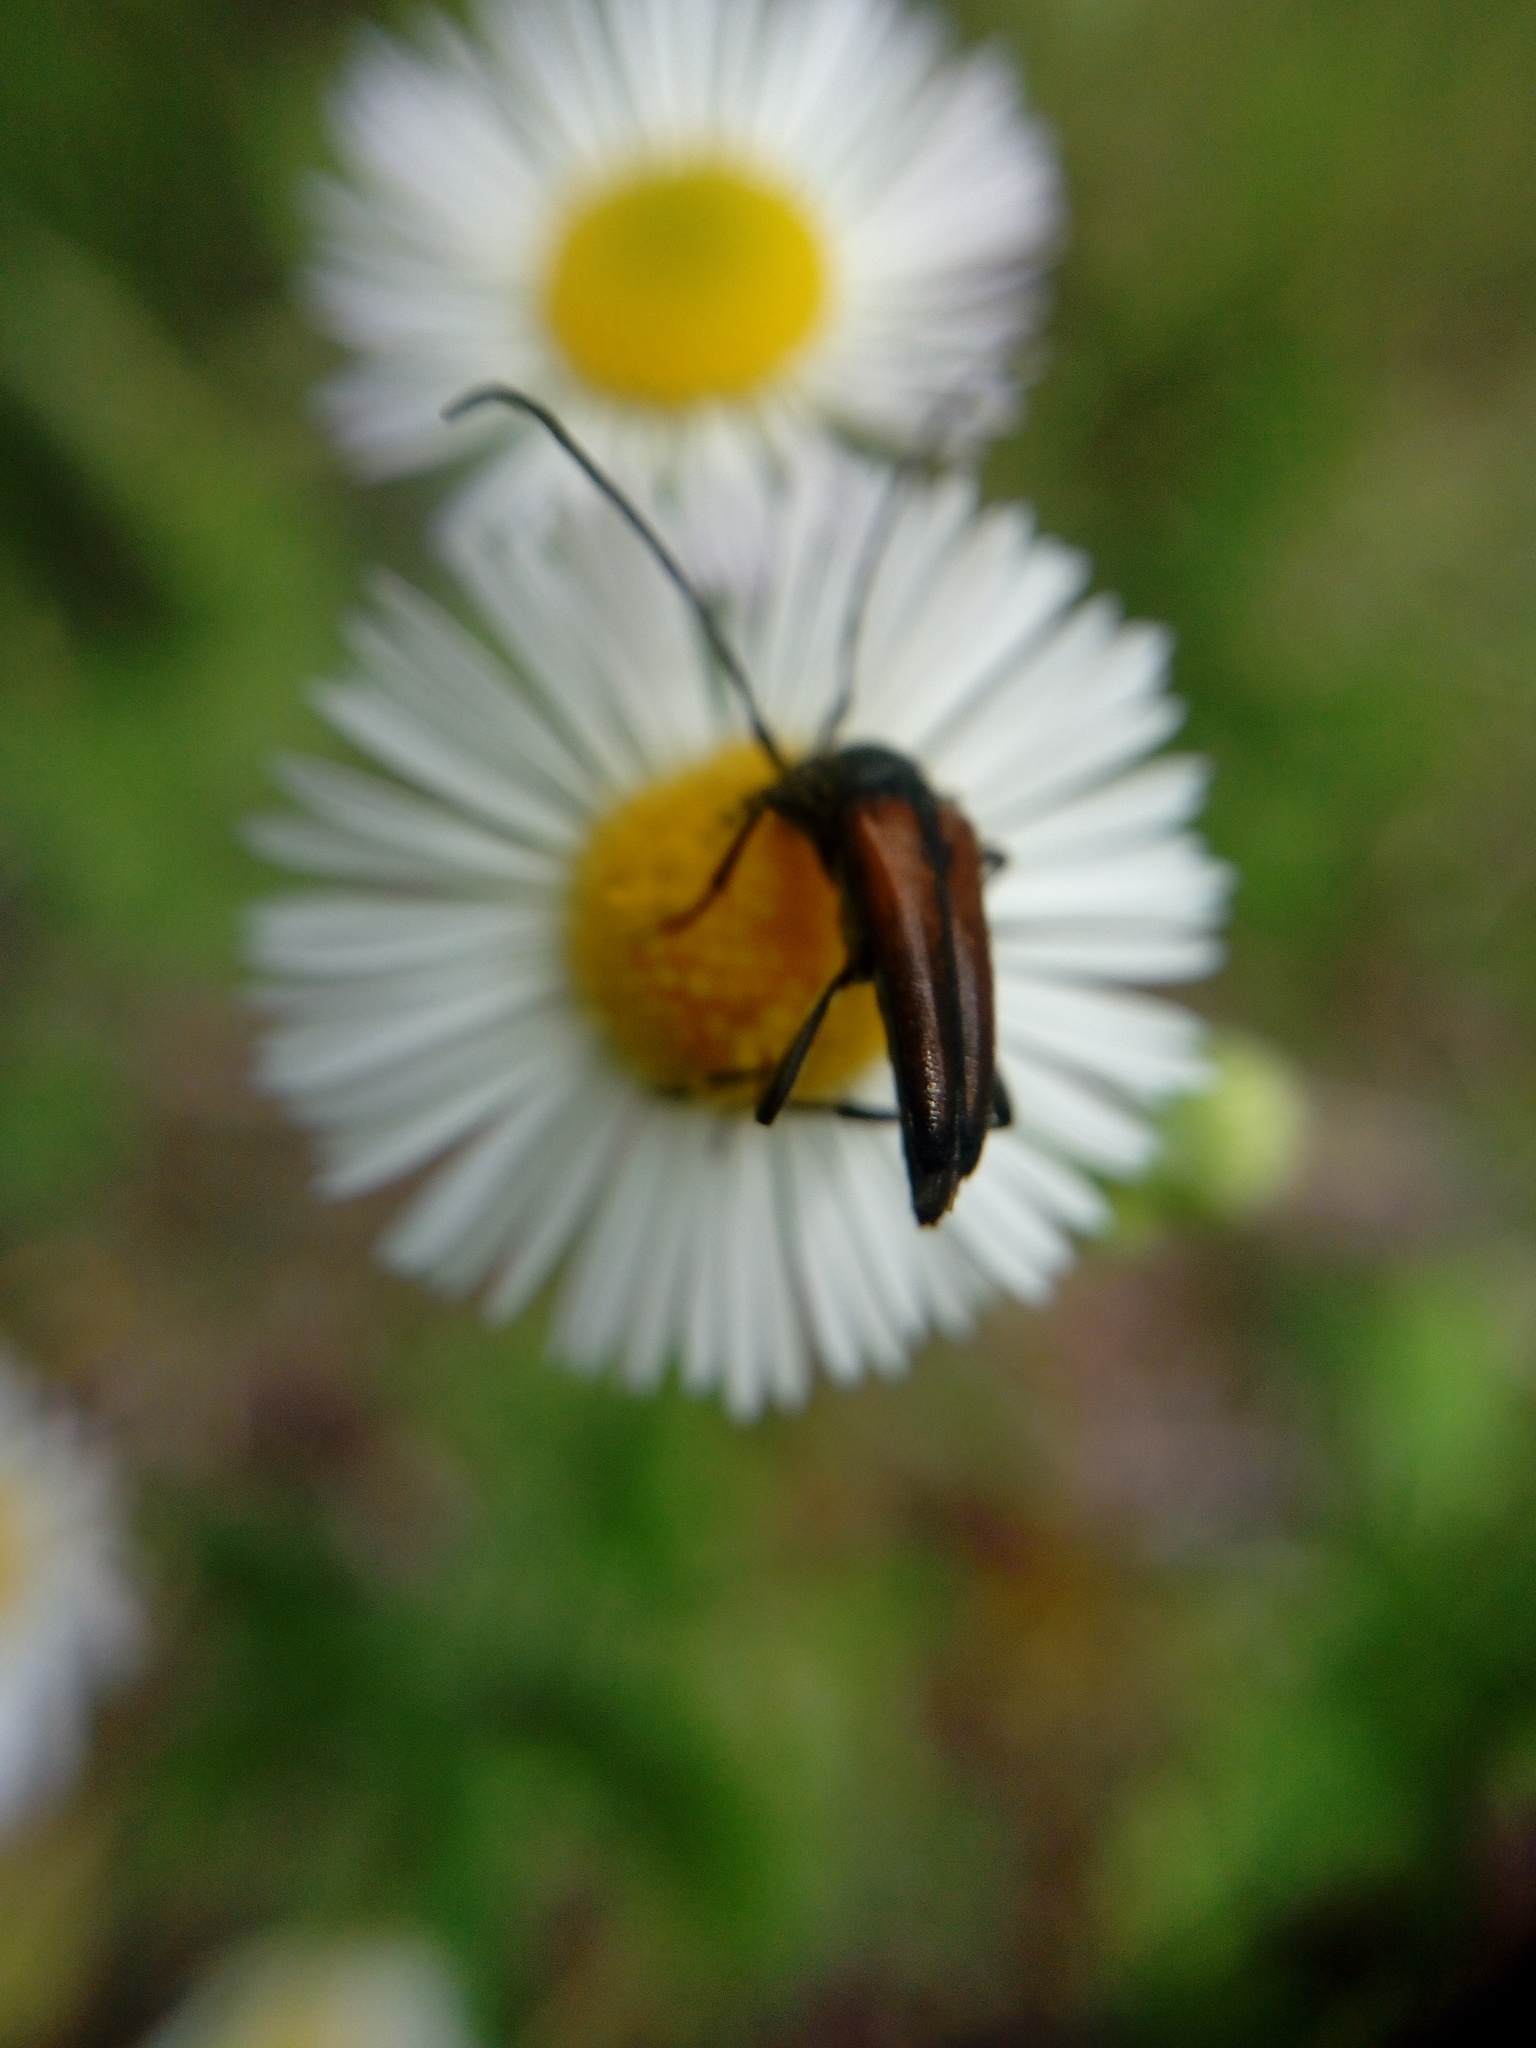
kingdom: Animalia
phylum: Arthropoda
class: Insecta
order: Coleoptera
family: Cerambycidae
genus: Stenurella
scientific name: Stenurella melanura
